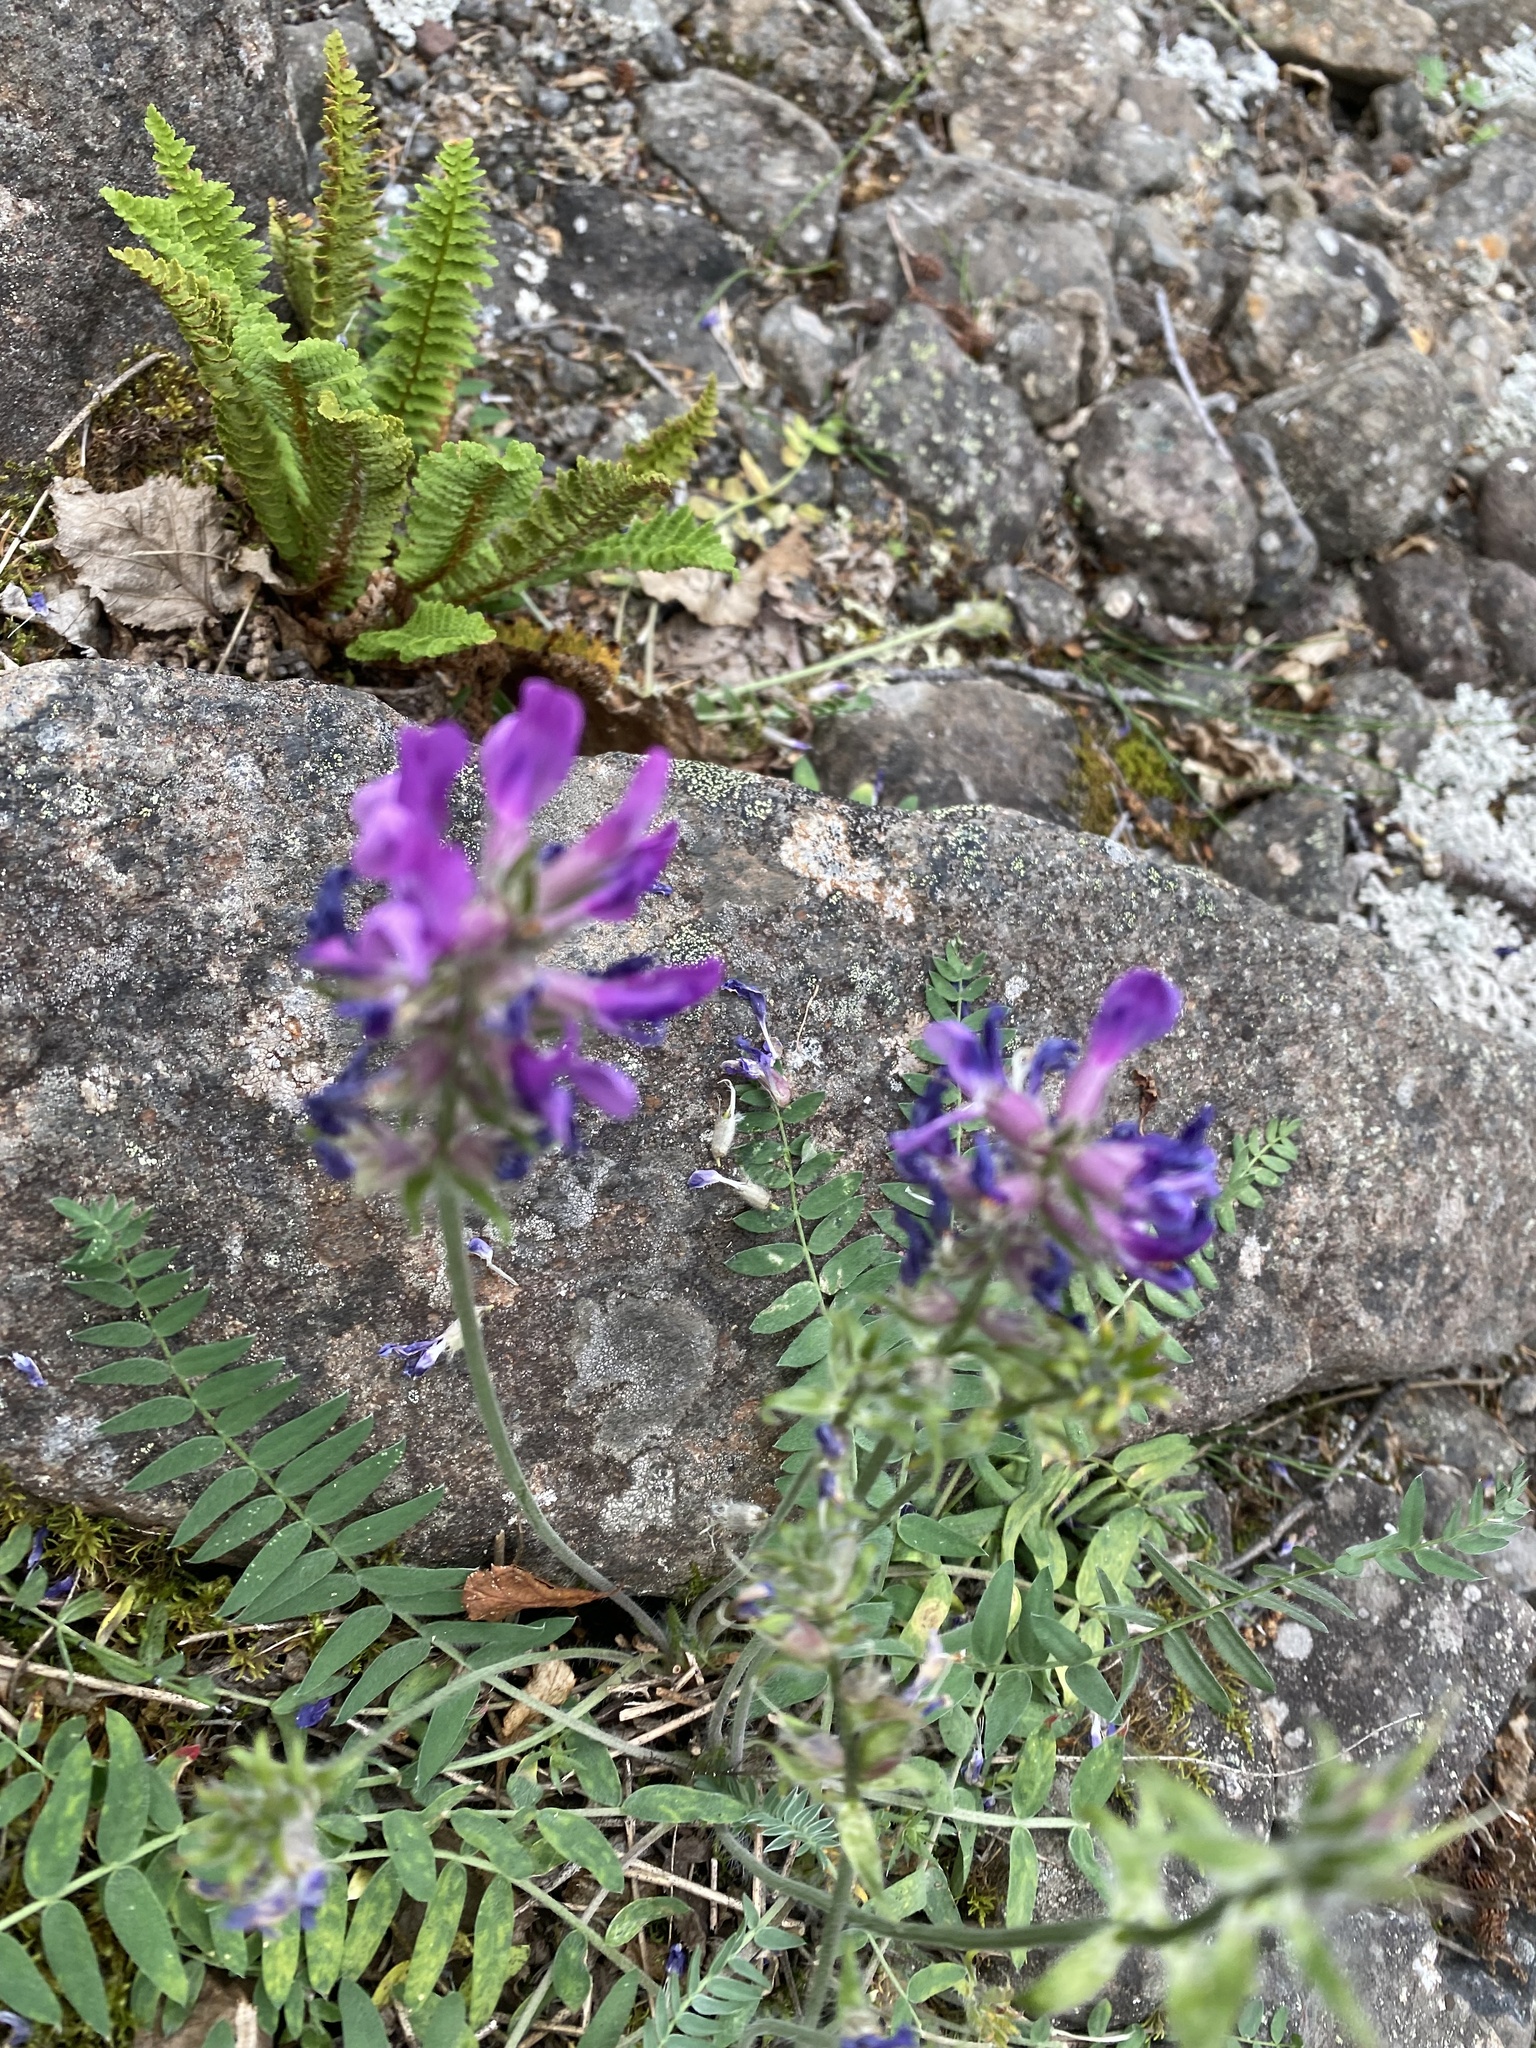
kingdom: Plantae
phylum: Tracheophyta
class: Magnoliopsida
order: Fabales
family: Fabaceae
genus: Oxytropis
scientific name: Oxytropis adamsiana
